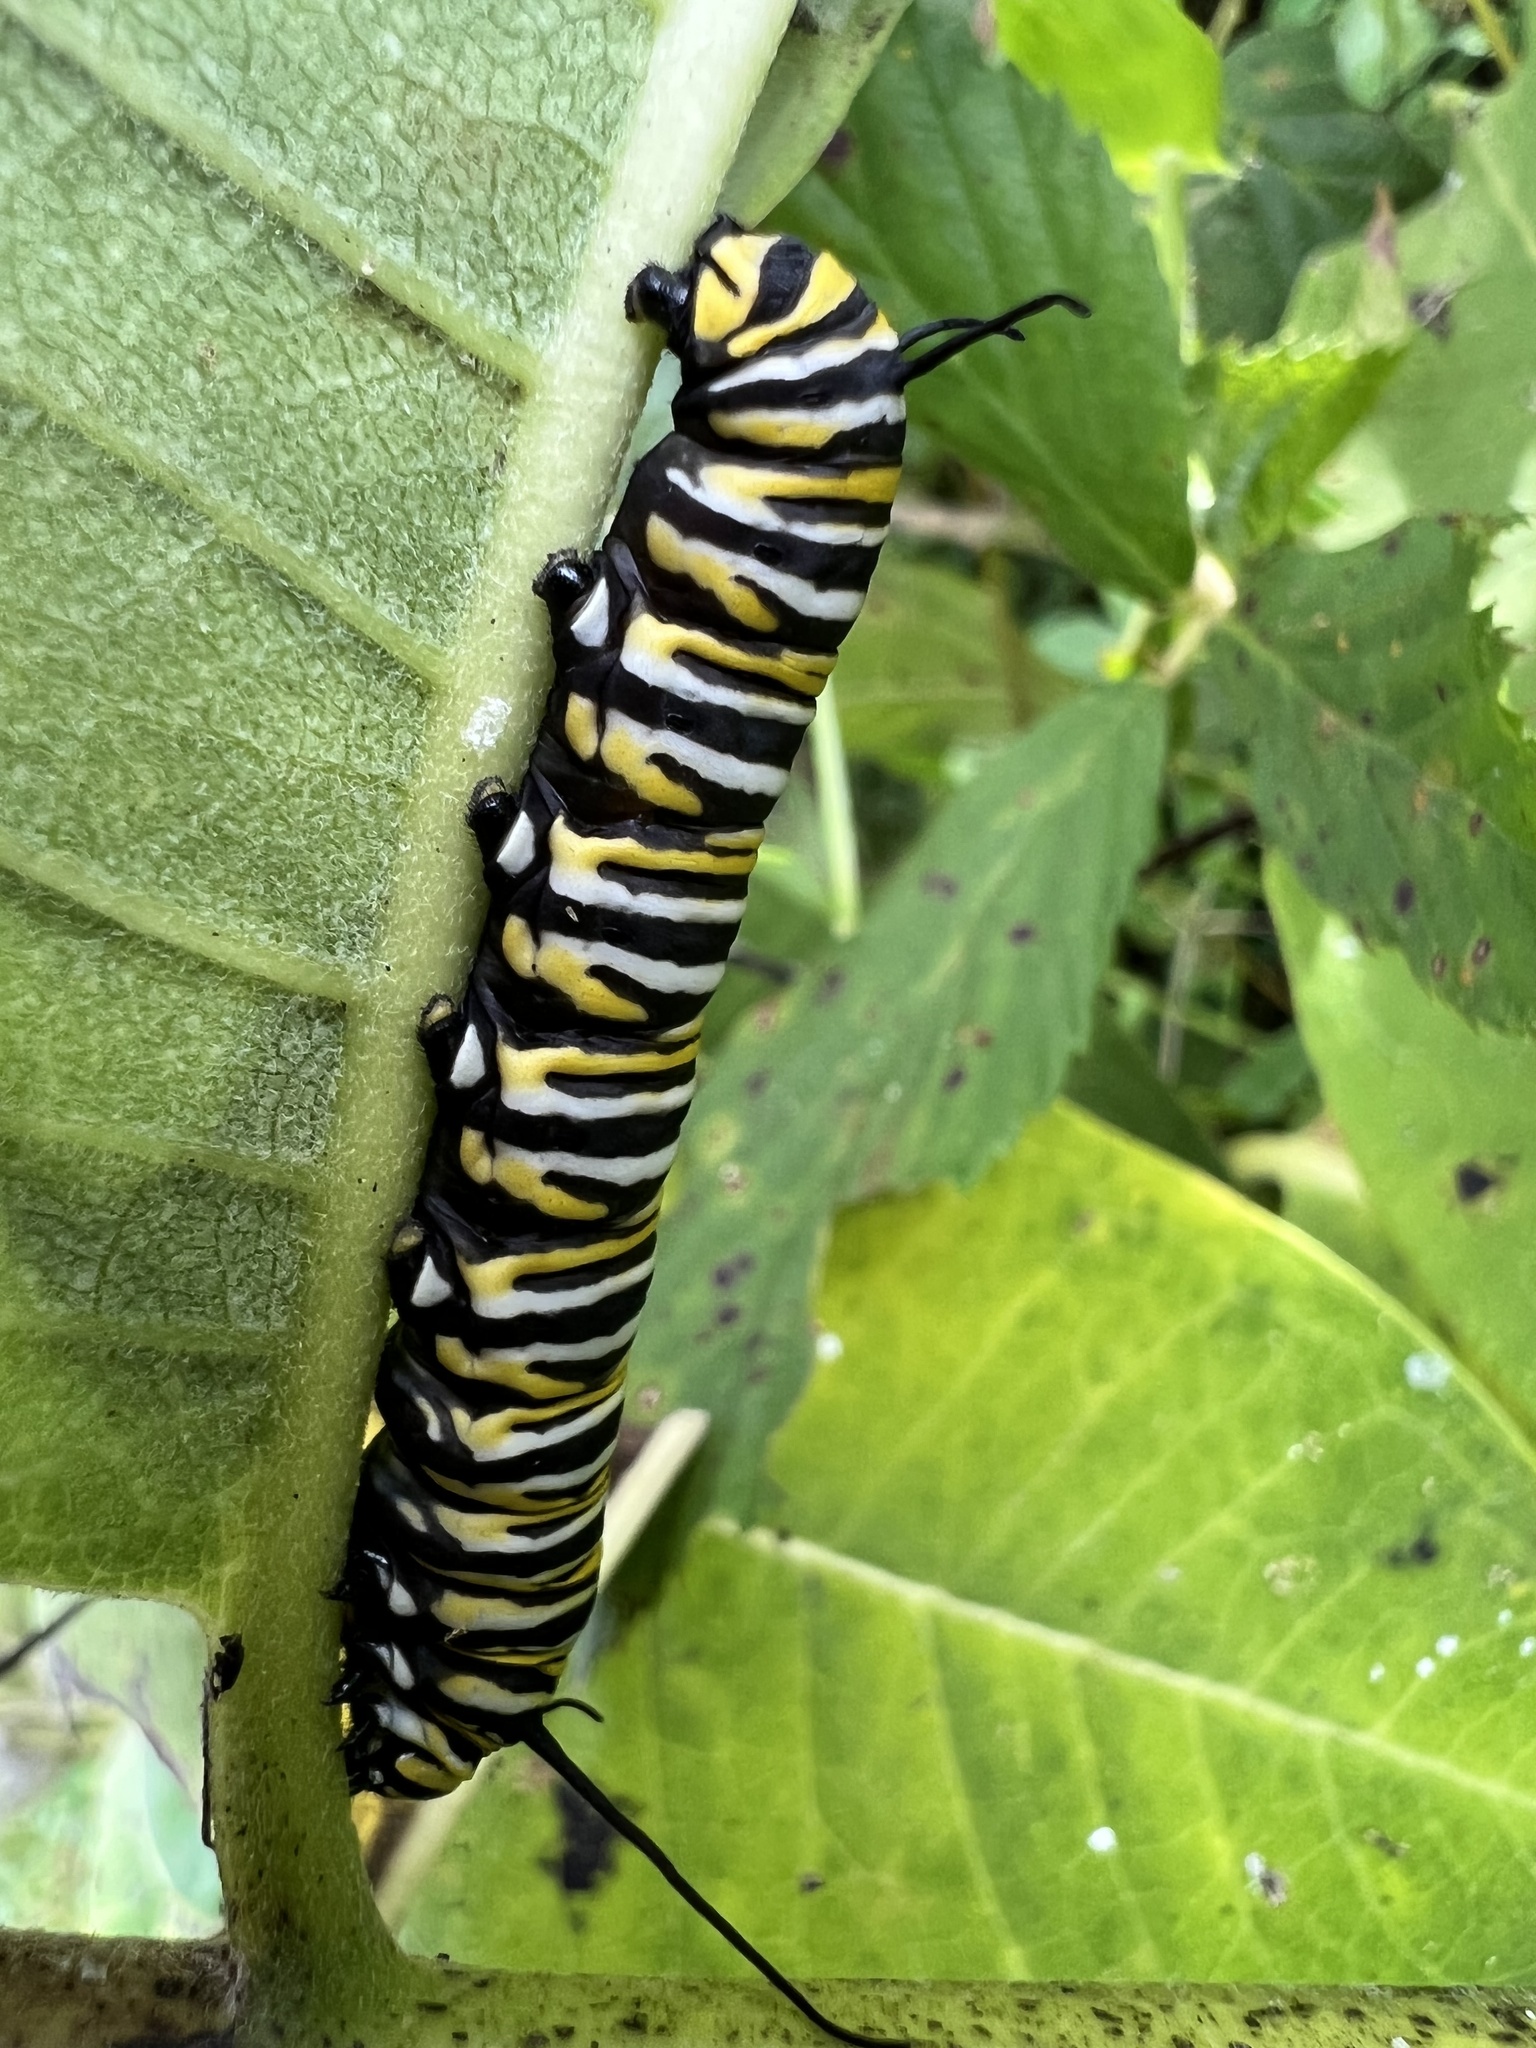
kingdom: Animalia
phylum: Arthropoda
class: Insecta
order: Lepidoptera
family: Nymphalidae
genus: Danaus
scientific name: Danaus plexippus
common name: Monarch
